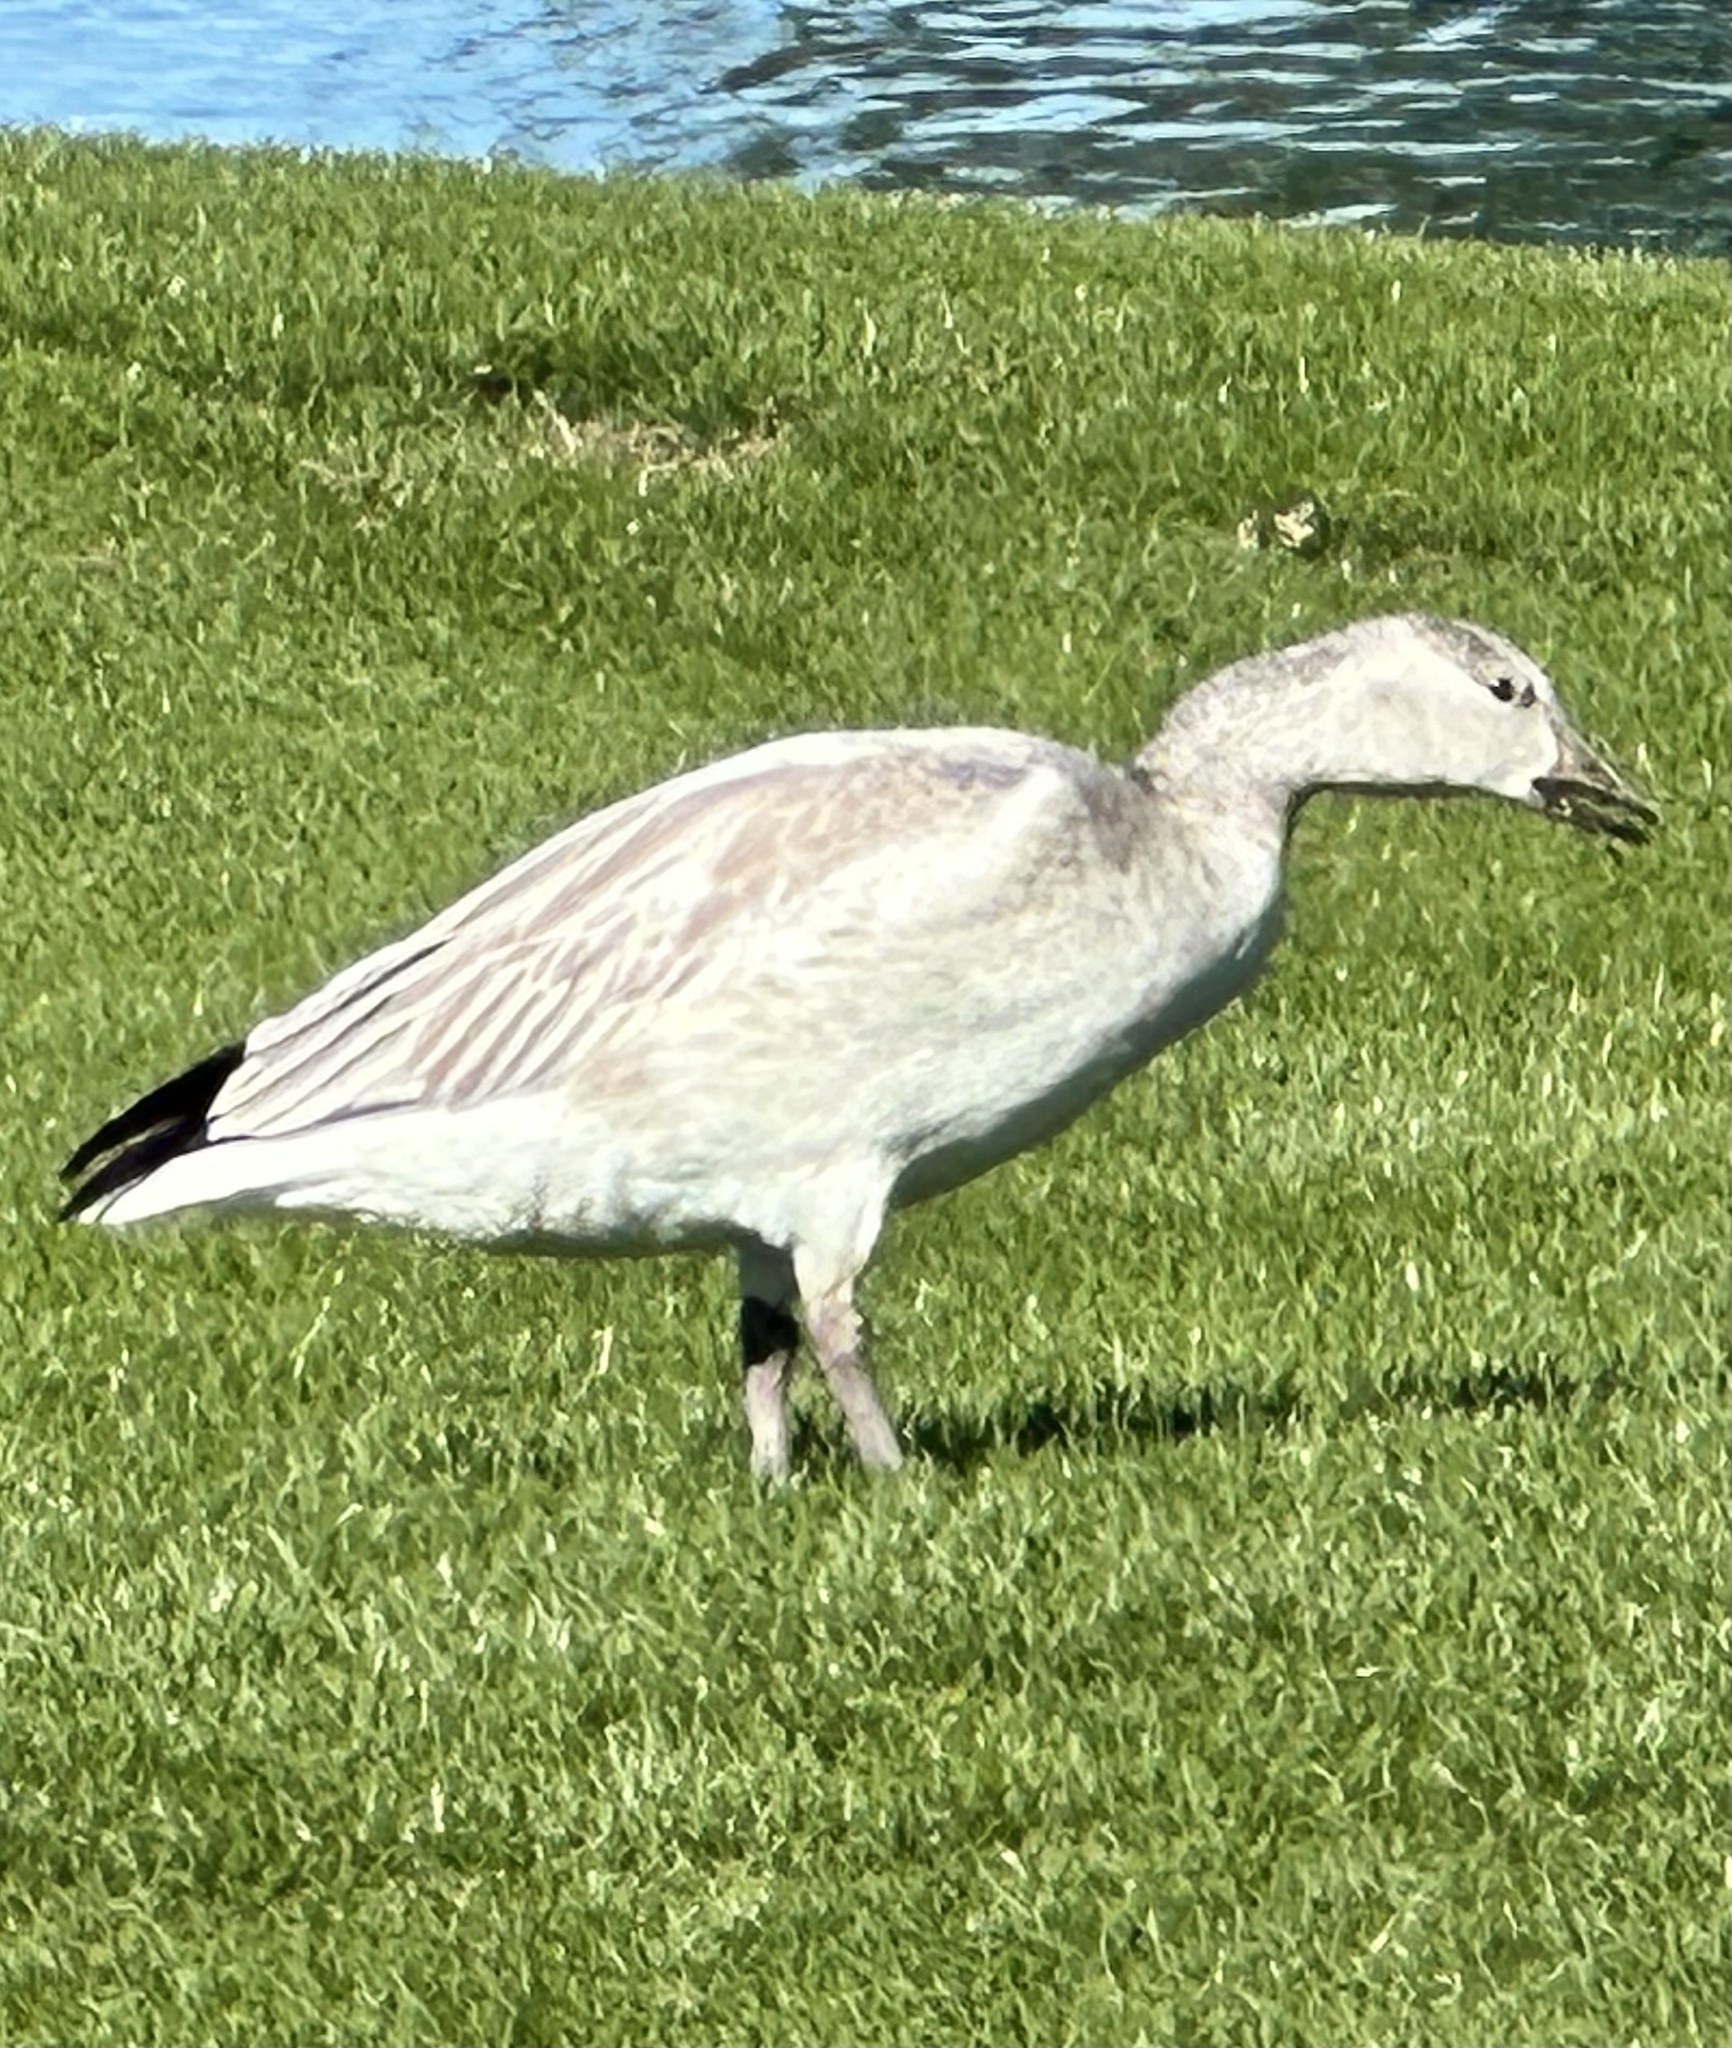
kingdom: Animalia
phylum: Chordata
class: Aves
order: Anseriformes
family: Anatidae
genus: Anser
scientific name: Anser caerulescens
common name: Snow goose
